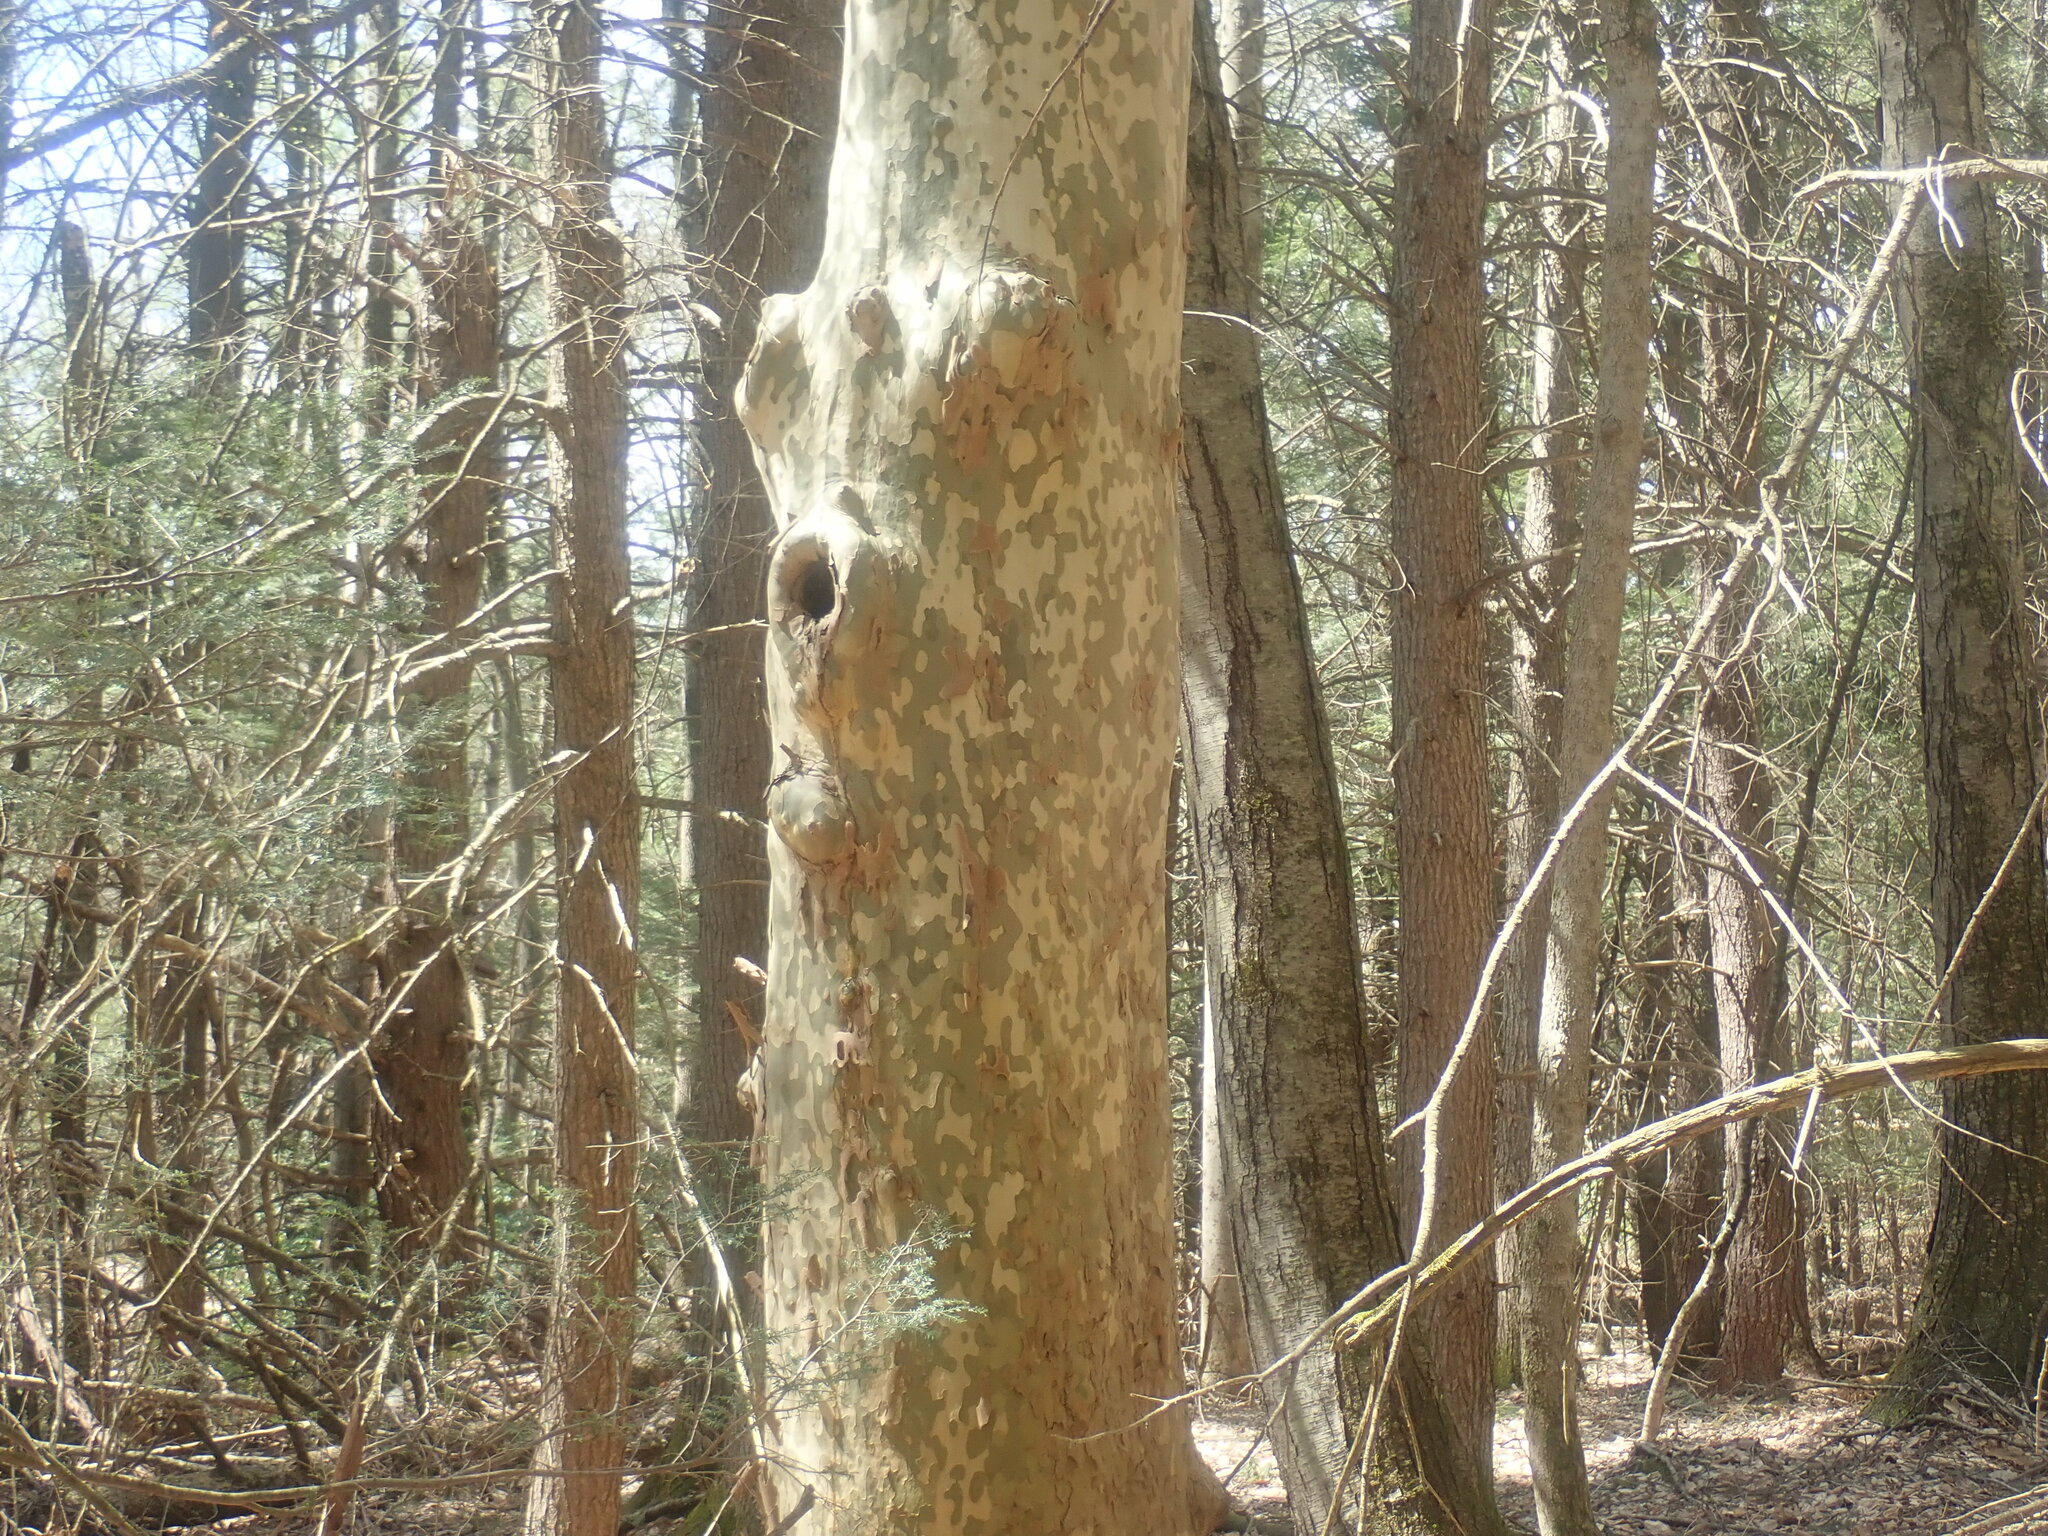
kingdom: Plantae
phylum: Tracheophyta
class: Magnoliopsida
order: Proteales
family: Platanaceae
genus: Platanus
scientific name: Platanus occidentalis
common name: American sycamore
